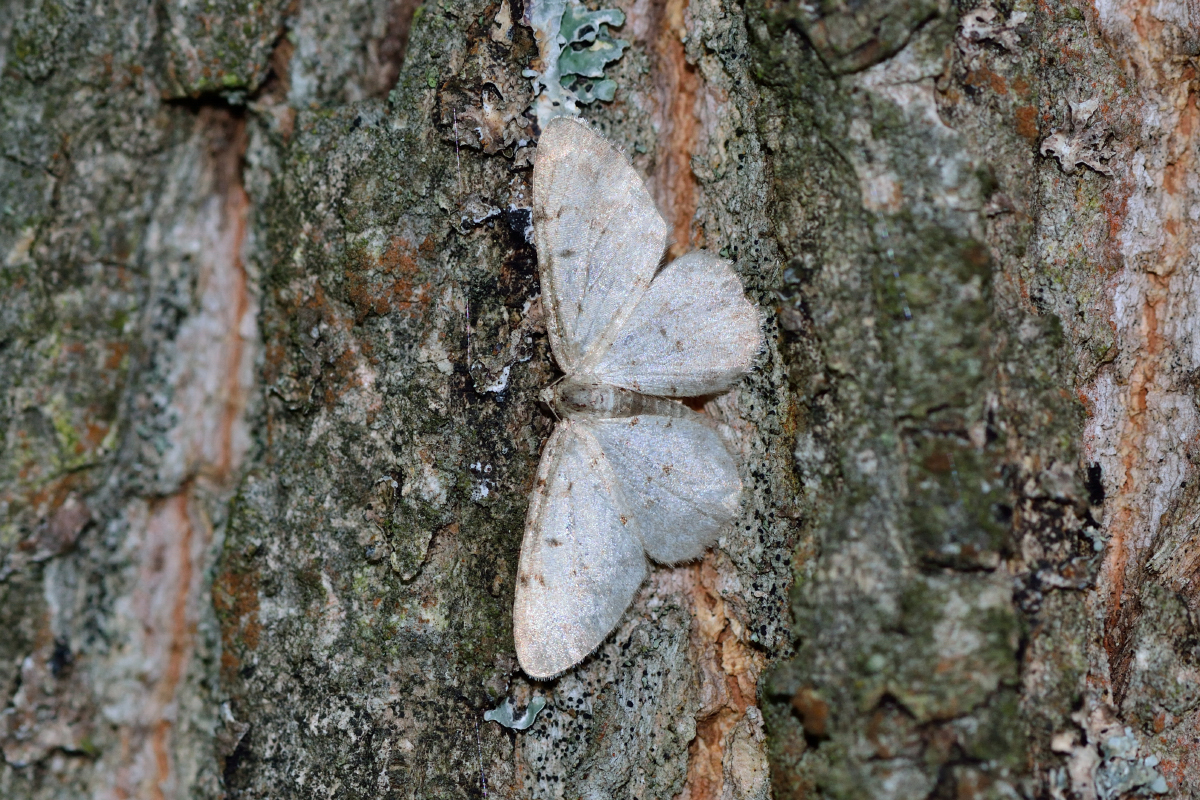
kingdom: Animalia
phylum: Arthropoda
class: Insecta
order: Lepidoptera
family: Geometridae
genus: Aethalura
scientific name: Aethalura punctulata
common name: Grey birch
